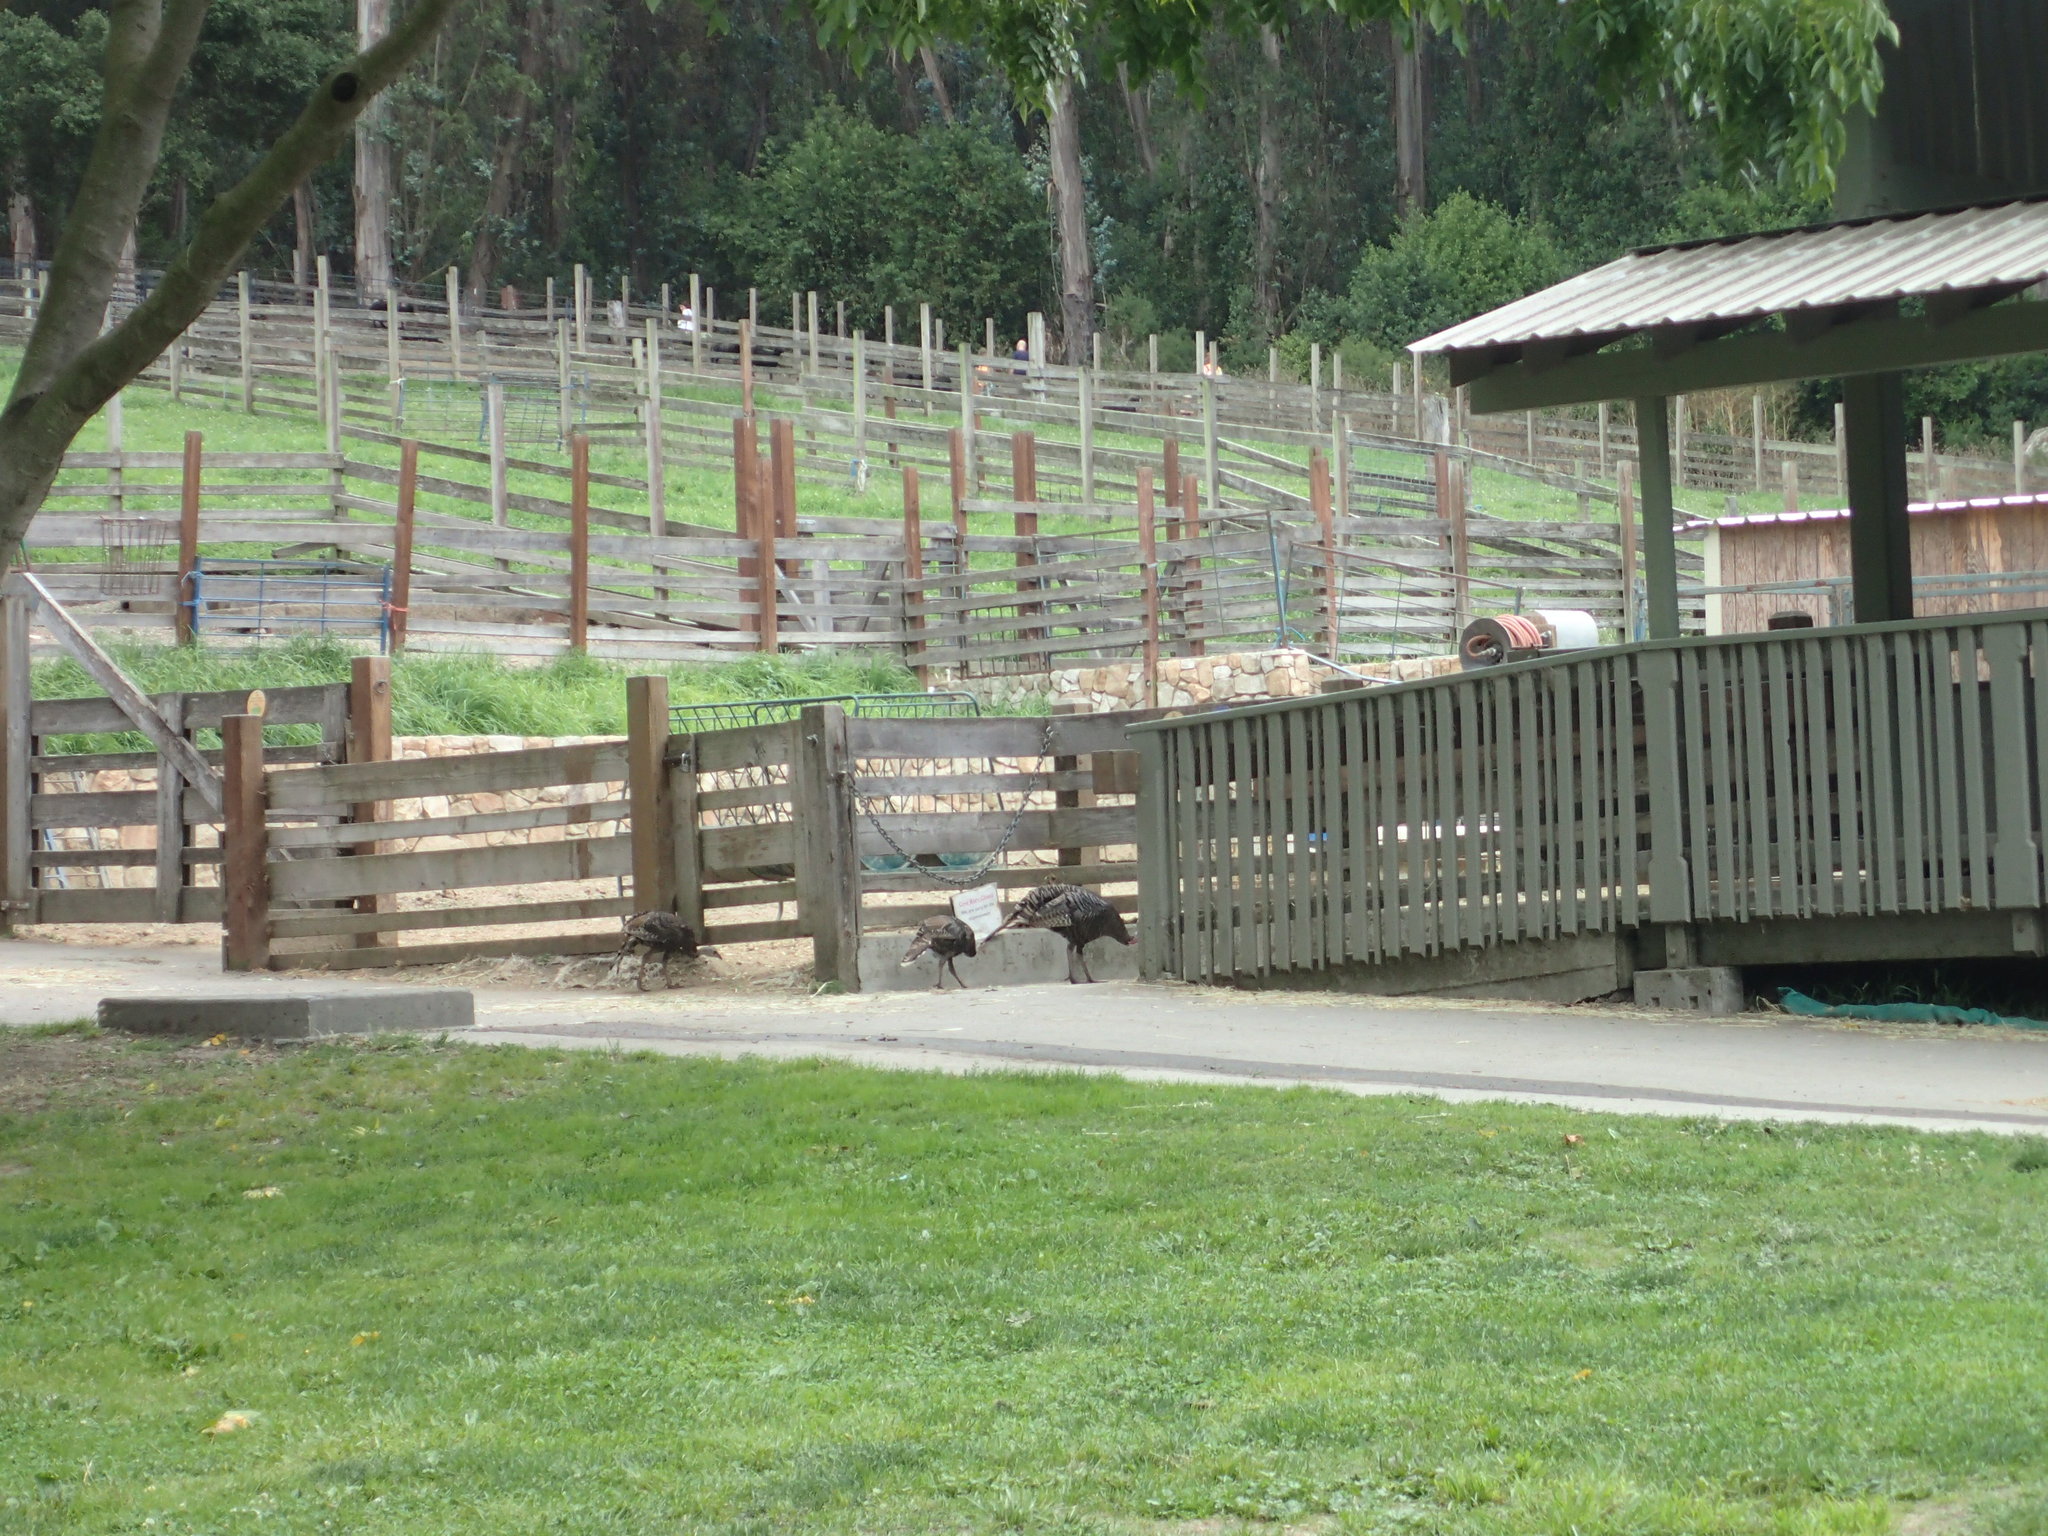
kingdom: Animalia
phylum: Chordata
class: Aves
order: Galliformes
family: Phasianidae
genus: Meleagris
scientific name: Meleagris gallopavo
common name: Wild turkey
